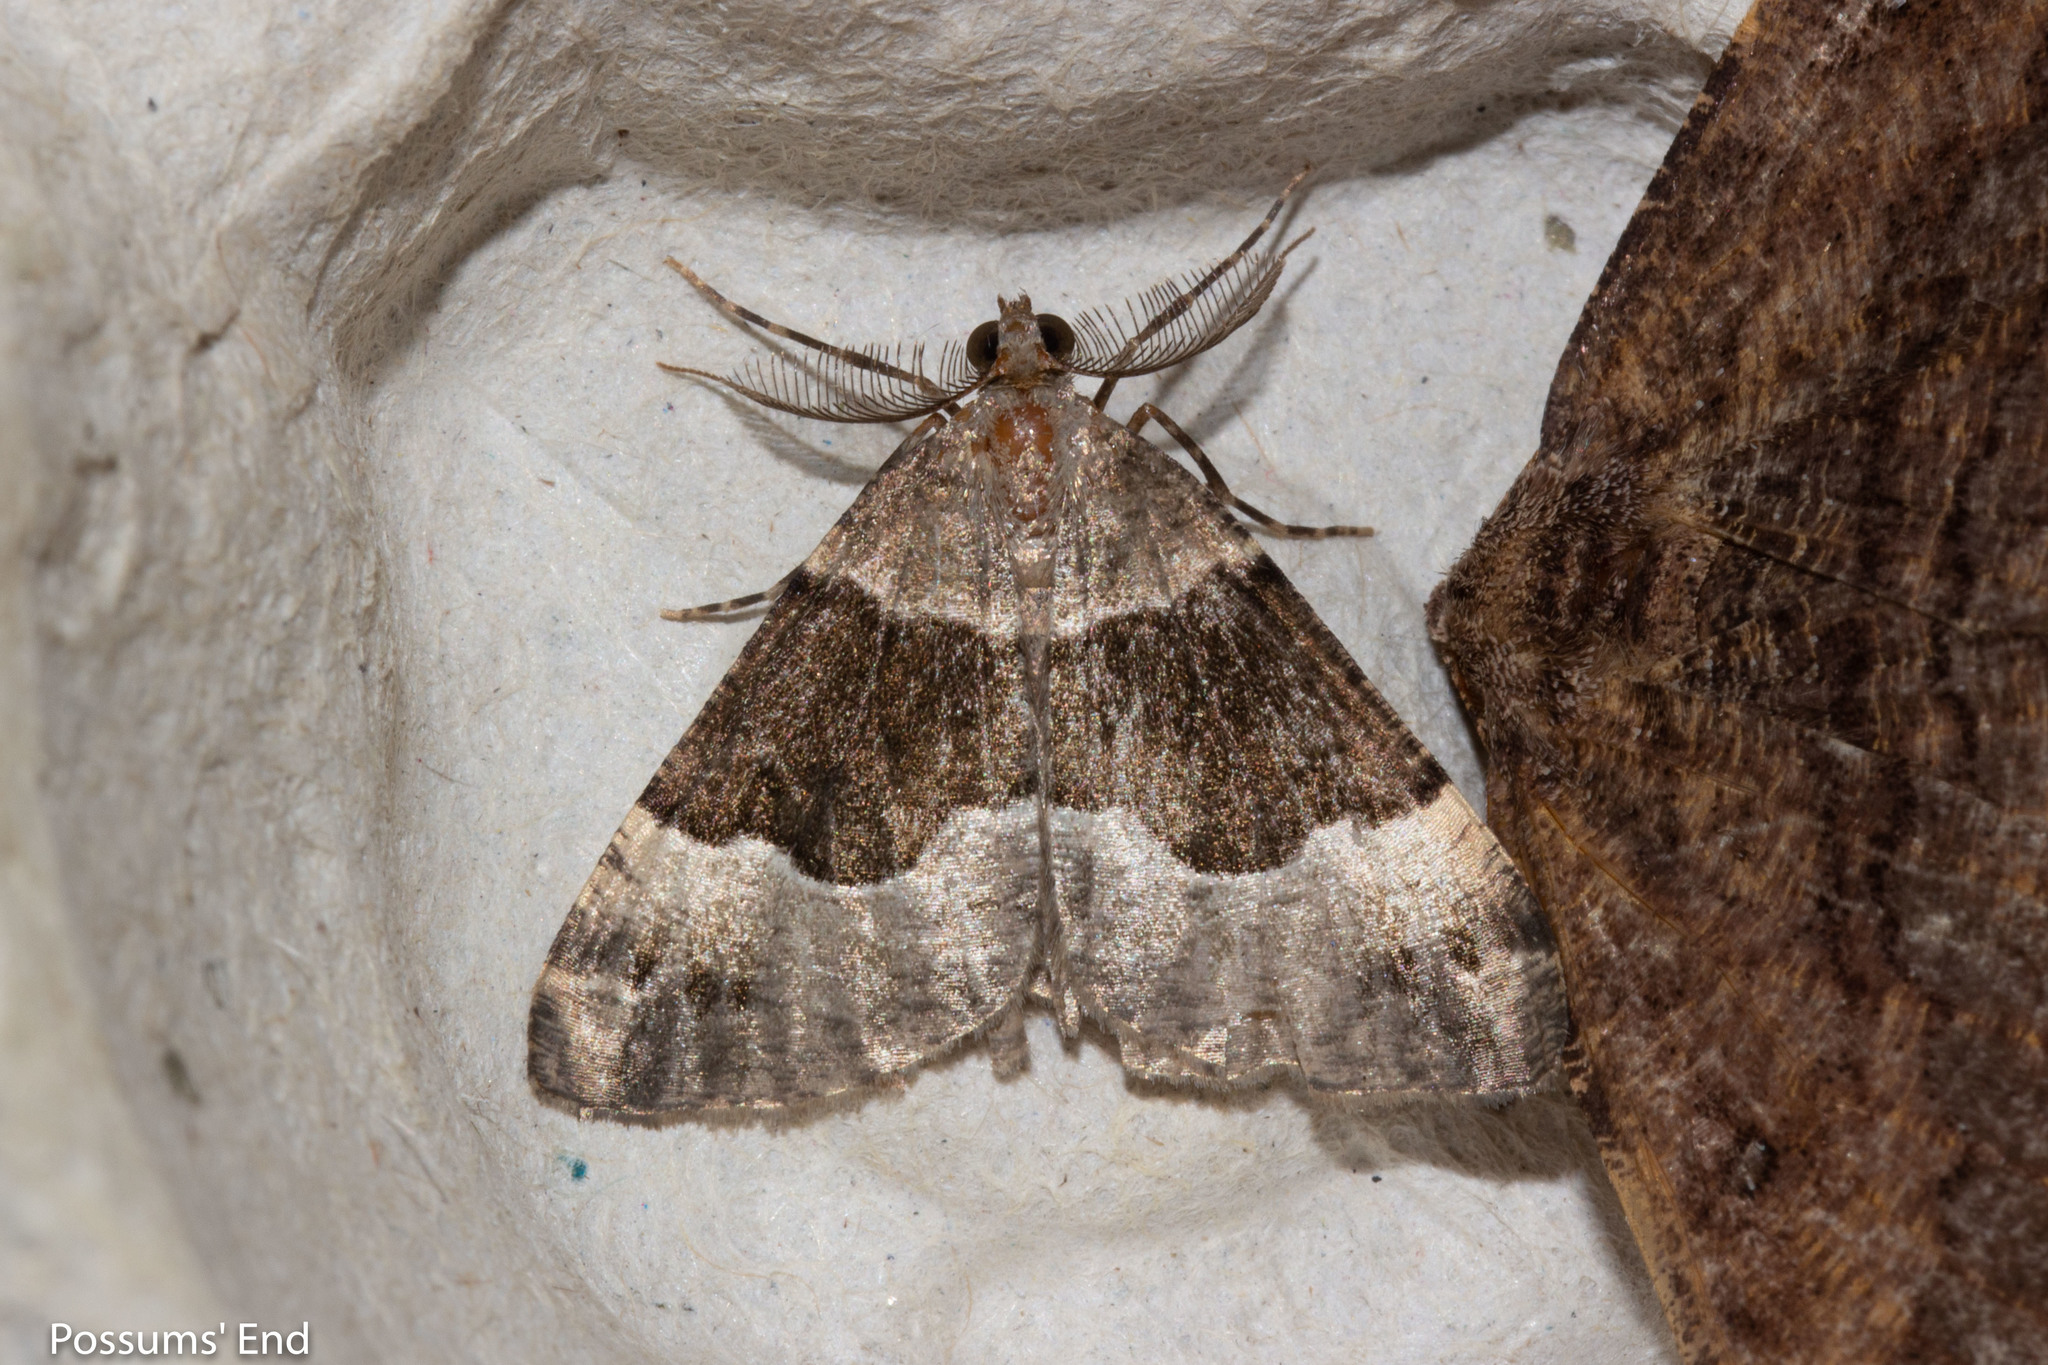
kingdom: Animalia
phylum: Arthropoda
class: Insecta
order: Lepidoptera
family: Geometridae
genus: Pseudocoremia
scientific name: Pseudocoremia
